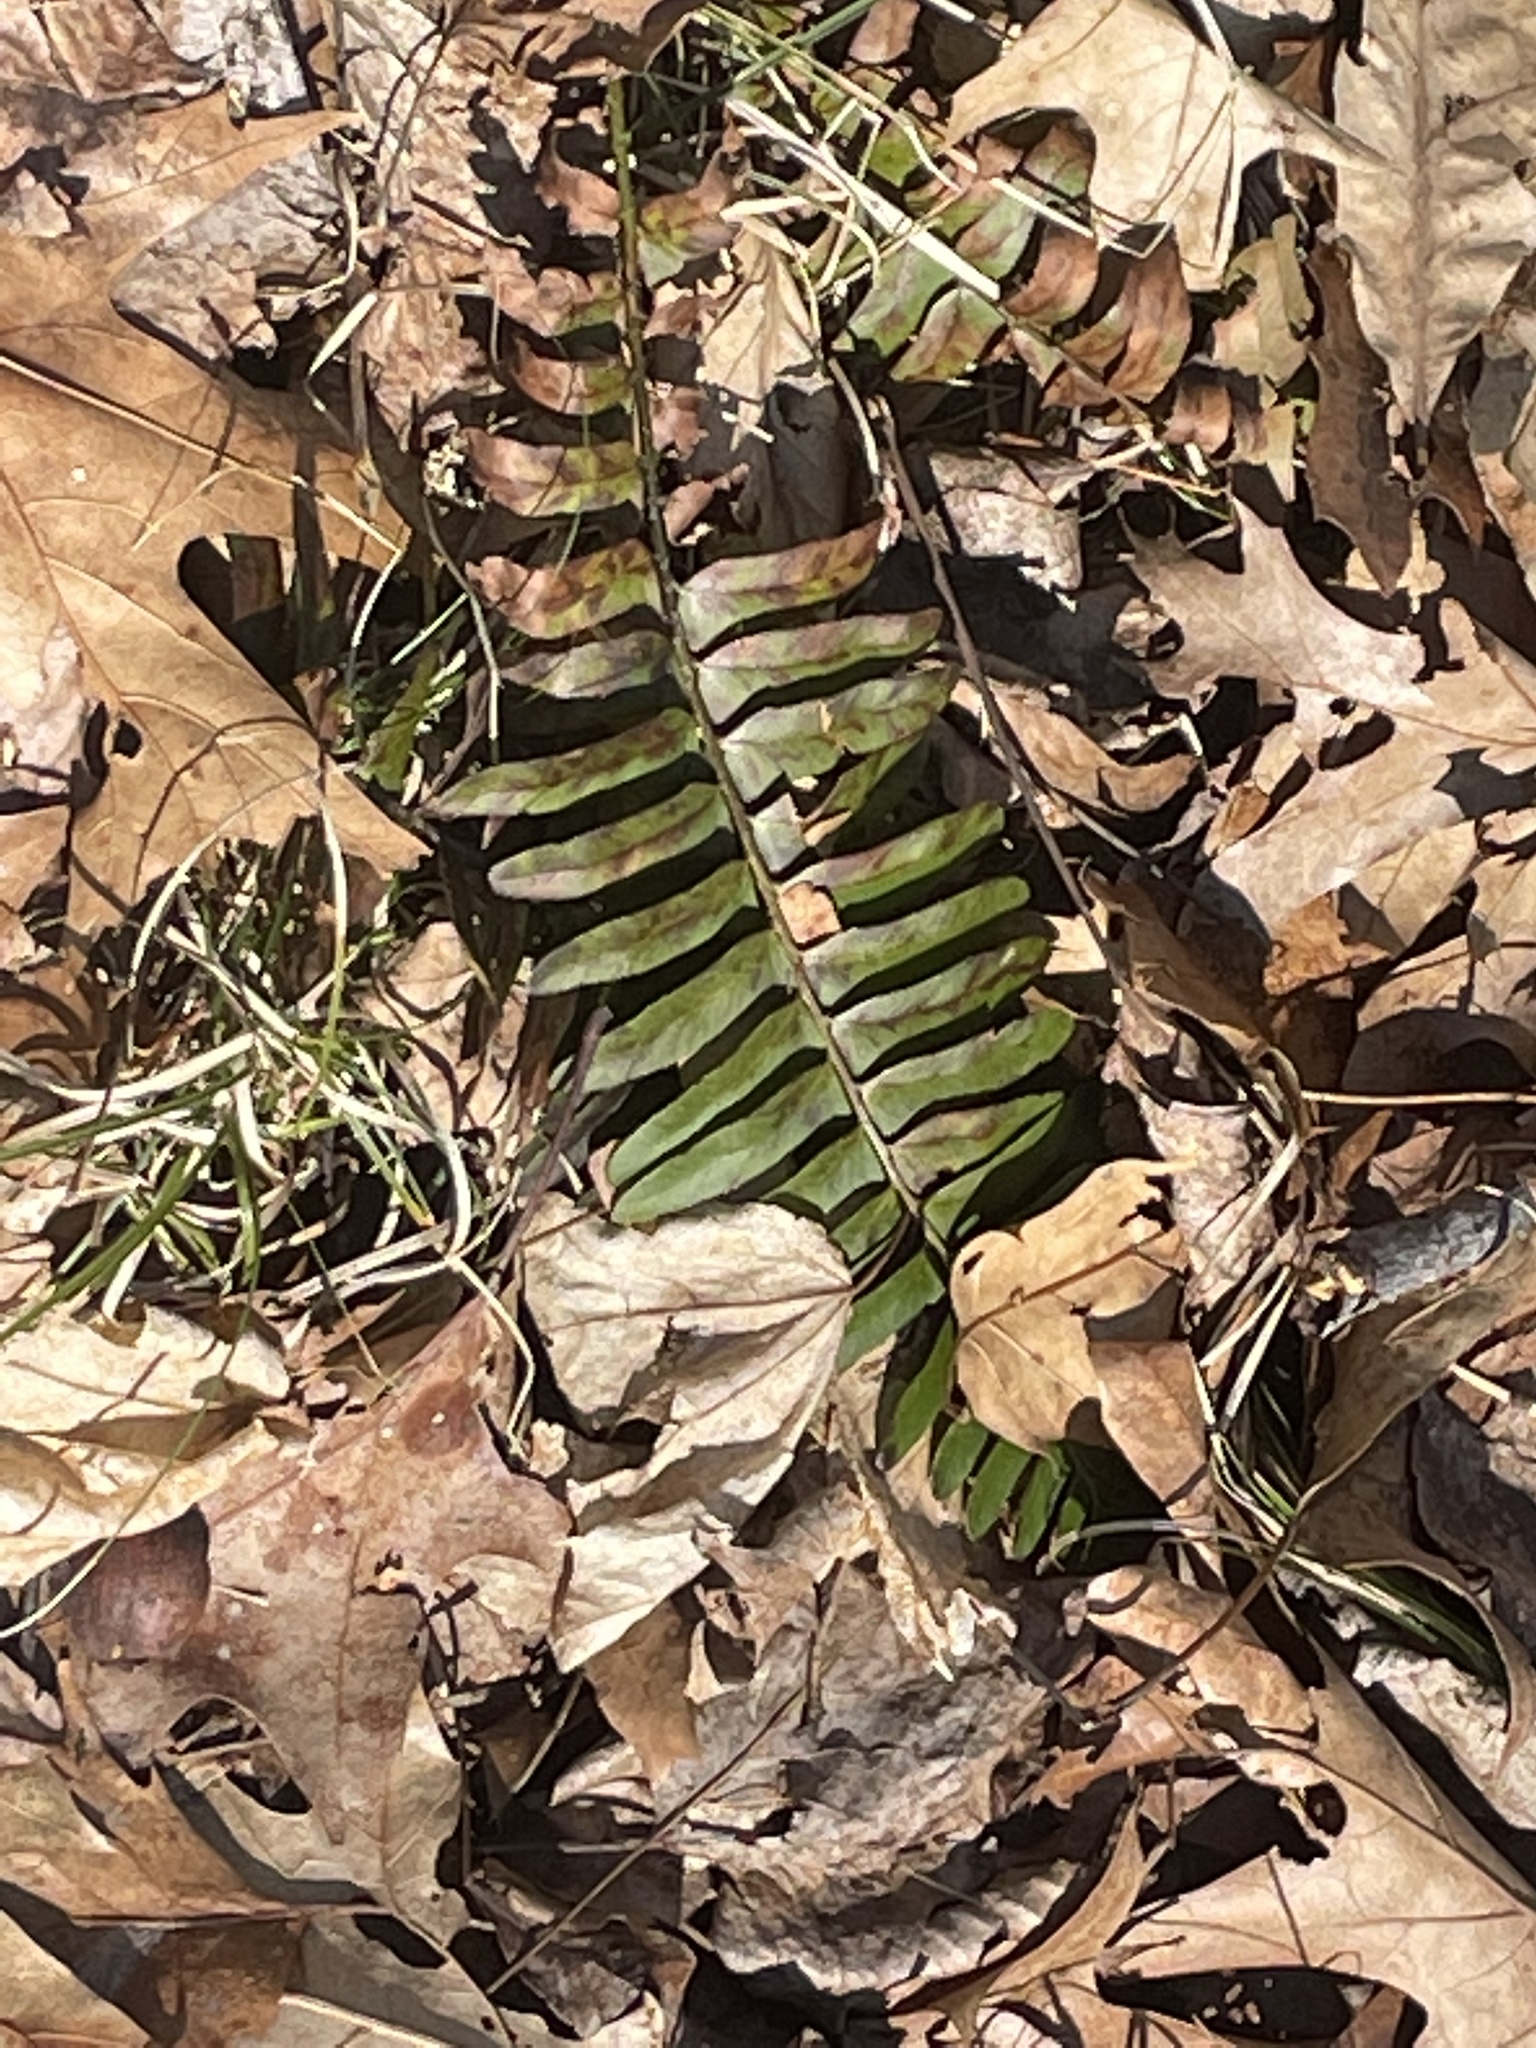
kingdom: Plantae
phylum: Tracheophyta
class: Polypodiopsida
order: Polypodiales
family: Dryopteridaceae
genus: Polystichum
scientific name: Polystichum acrostichoides
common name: Christmas fern
